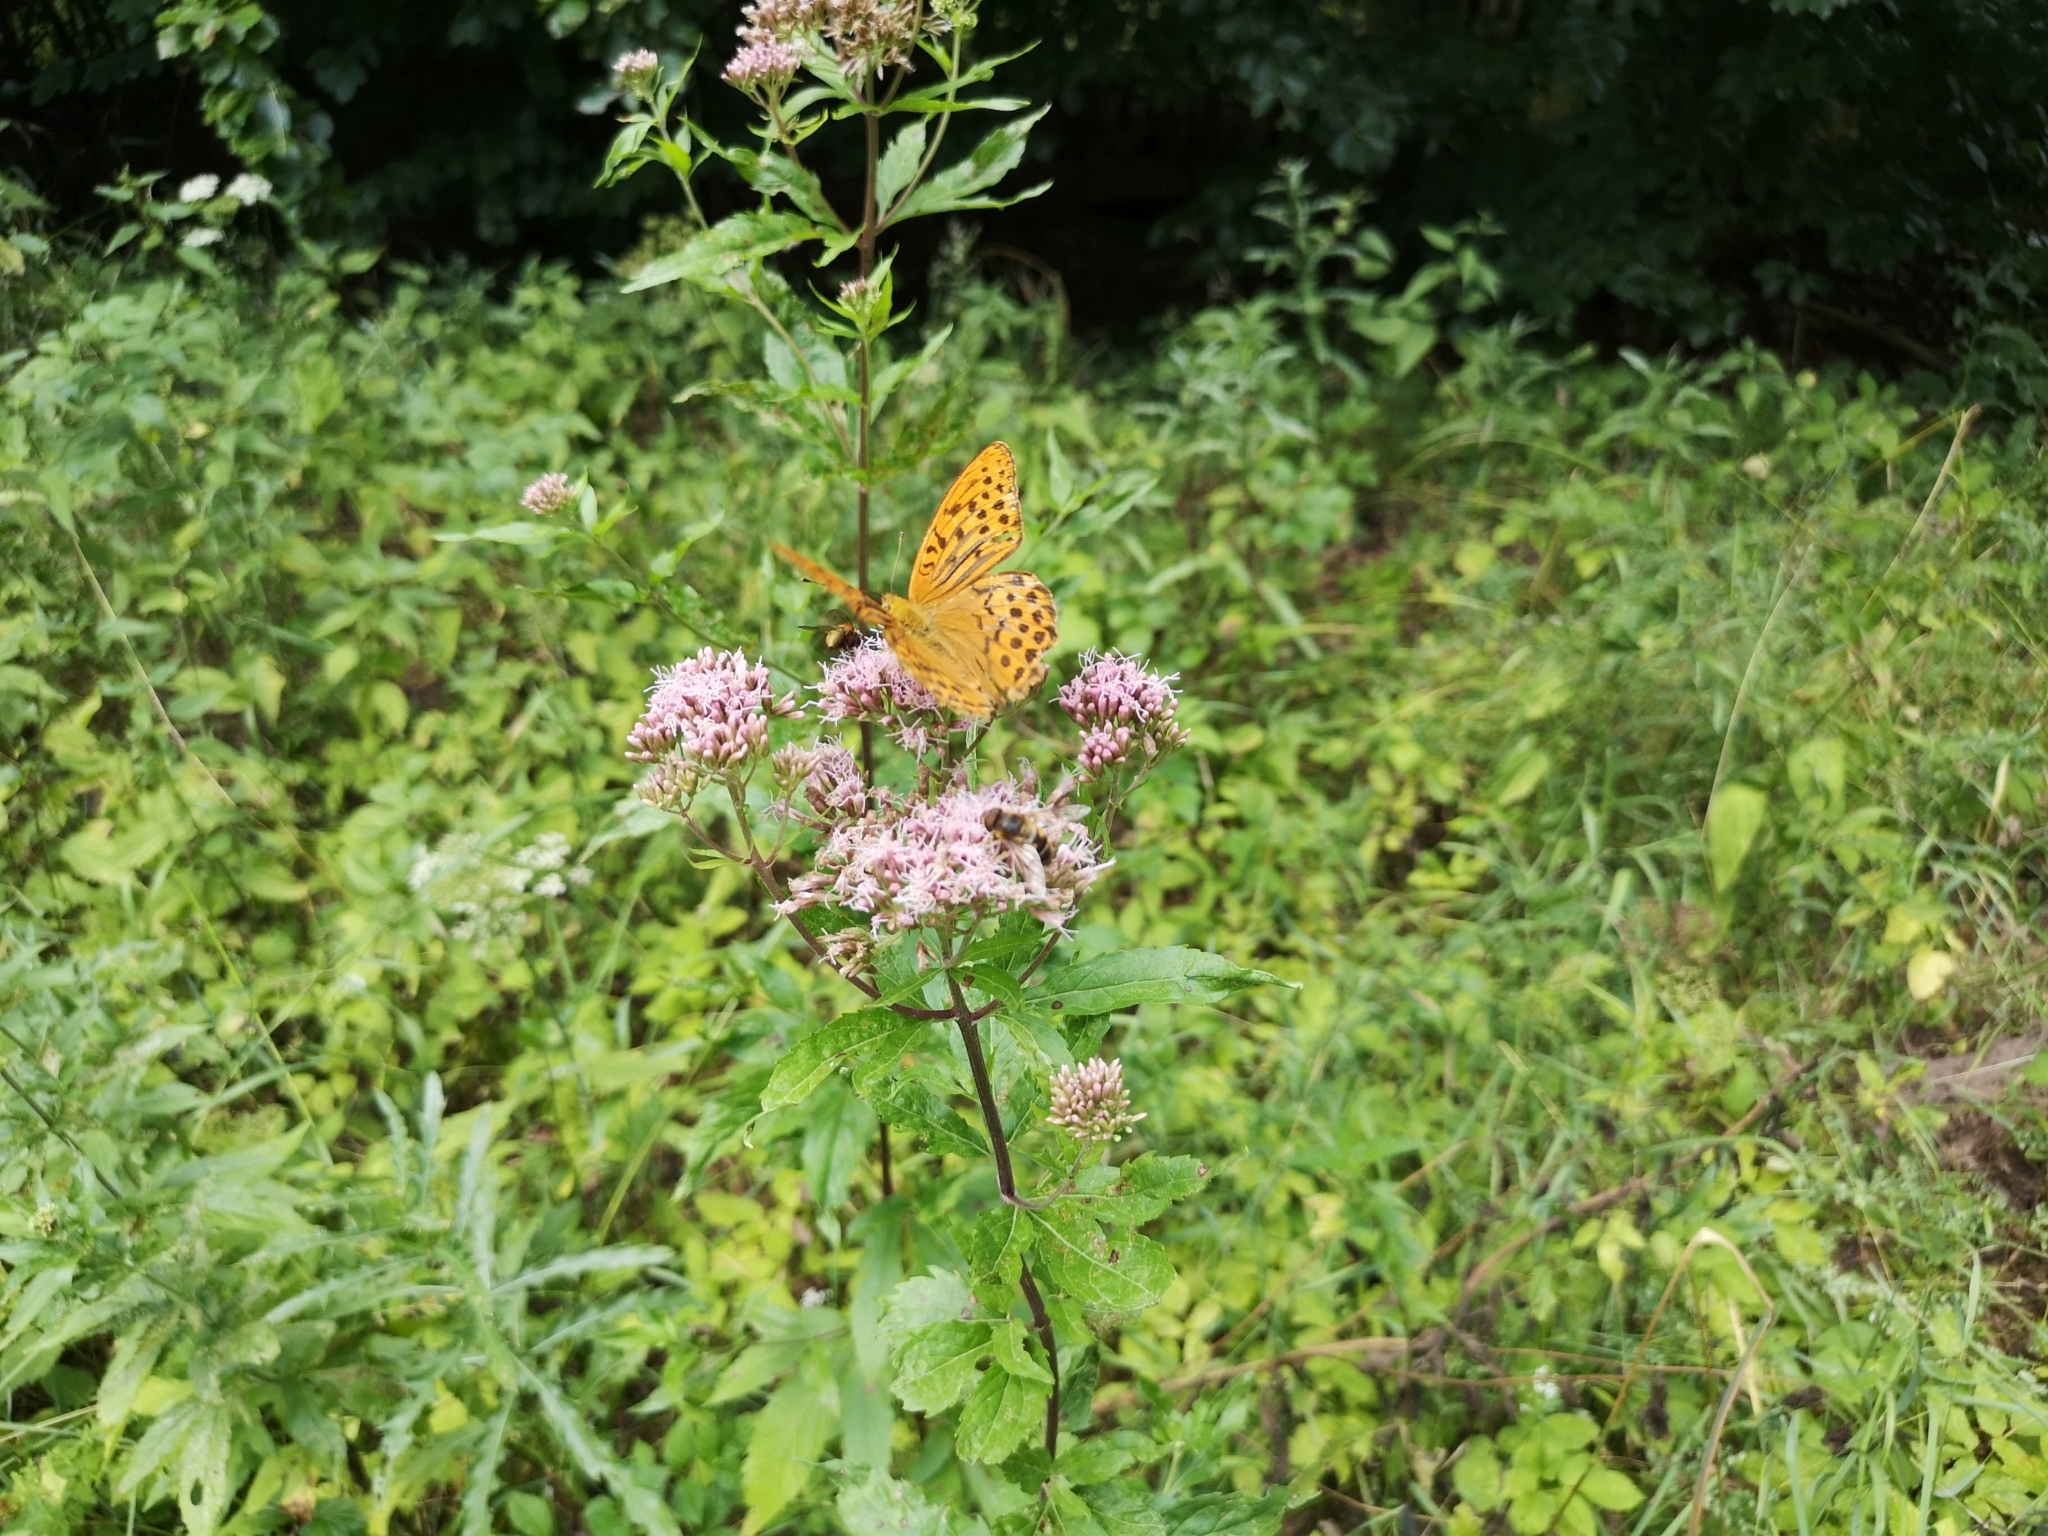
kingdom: Plantae
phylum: Tracheophyta
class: Magnoliopsida
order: Asterales
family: Asteraceae
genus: Eupatorium
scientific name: Eupatorium cannabinum
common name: Hemp-agrimony
